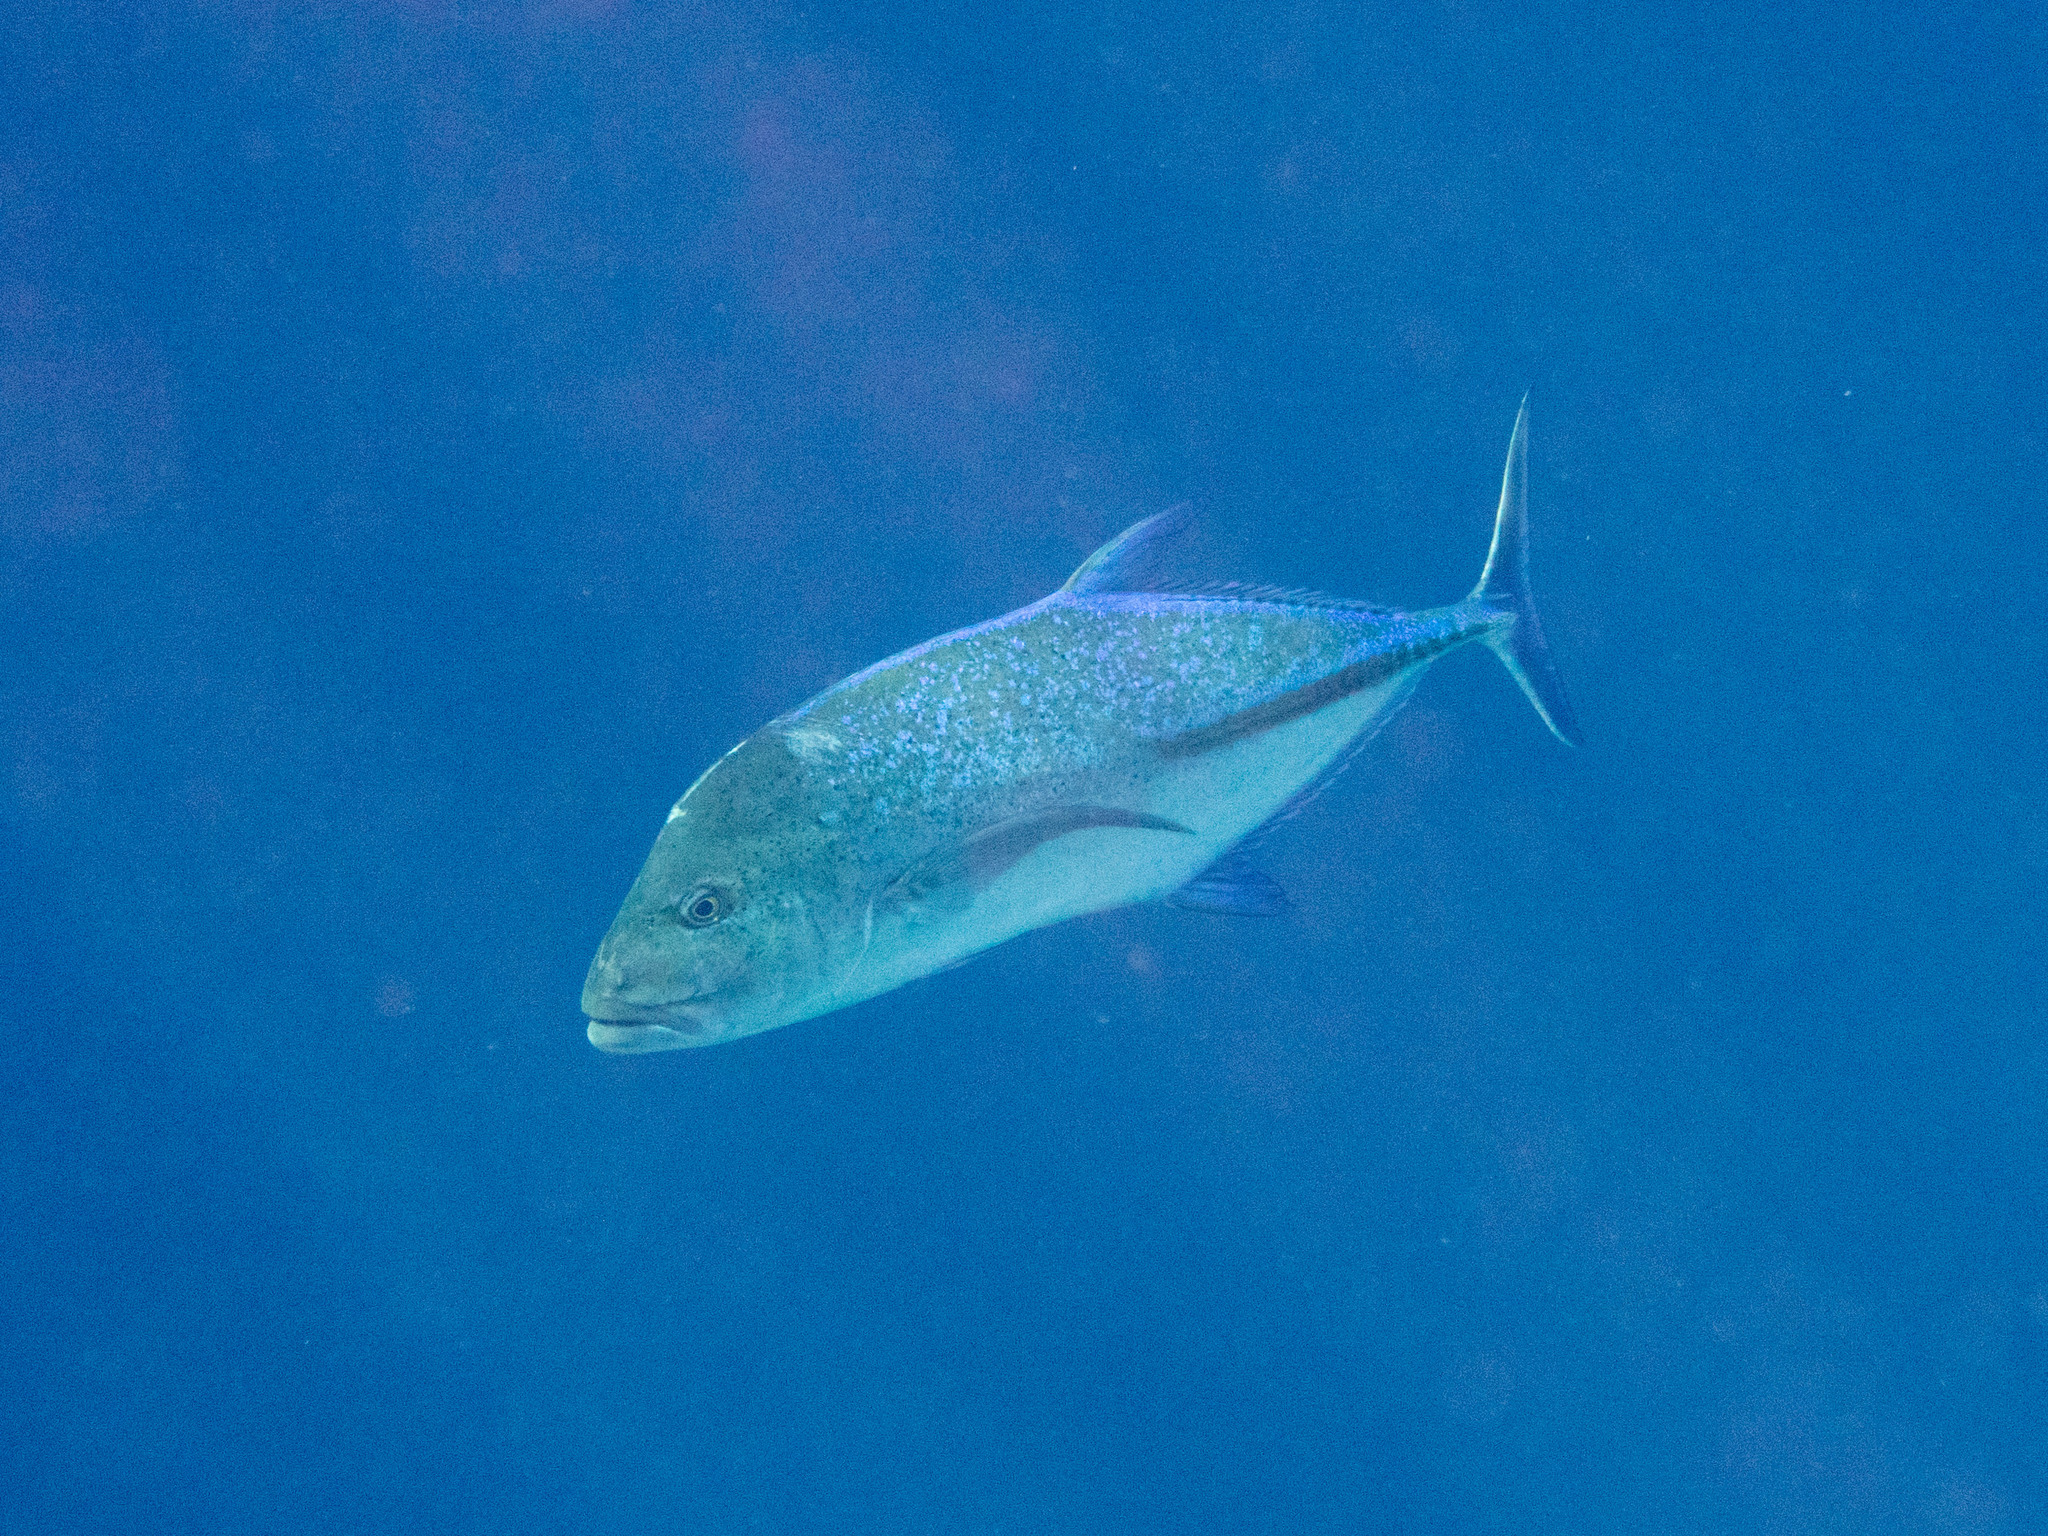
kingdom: Animalia
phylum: Chordata
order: Perciformes
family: Carangidae
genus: Caranx
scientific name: Caranx melampygus
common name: Bluefin trevally
